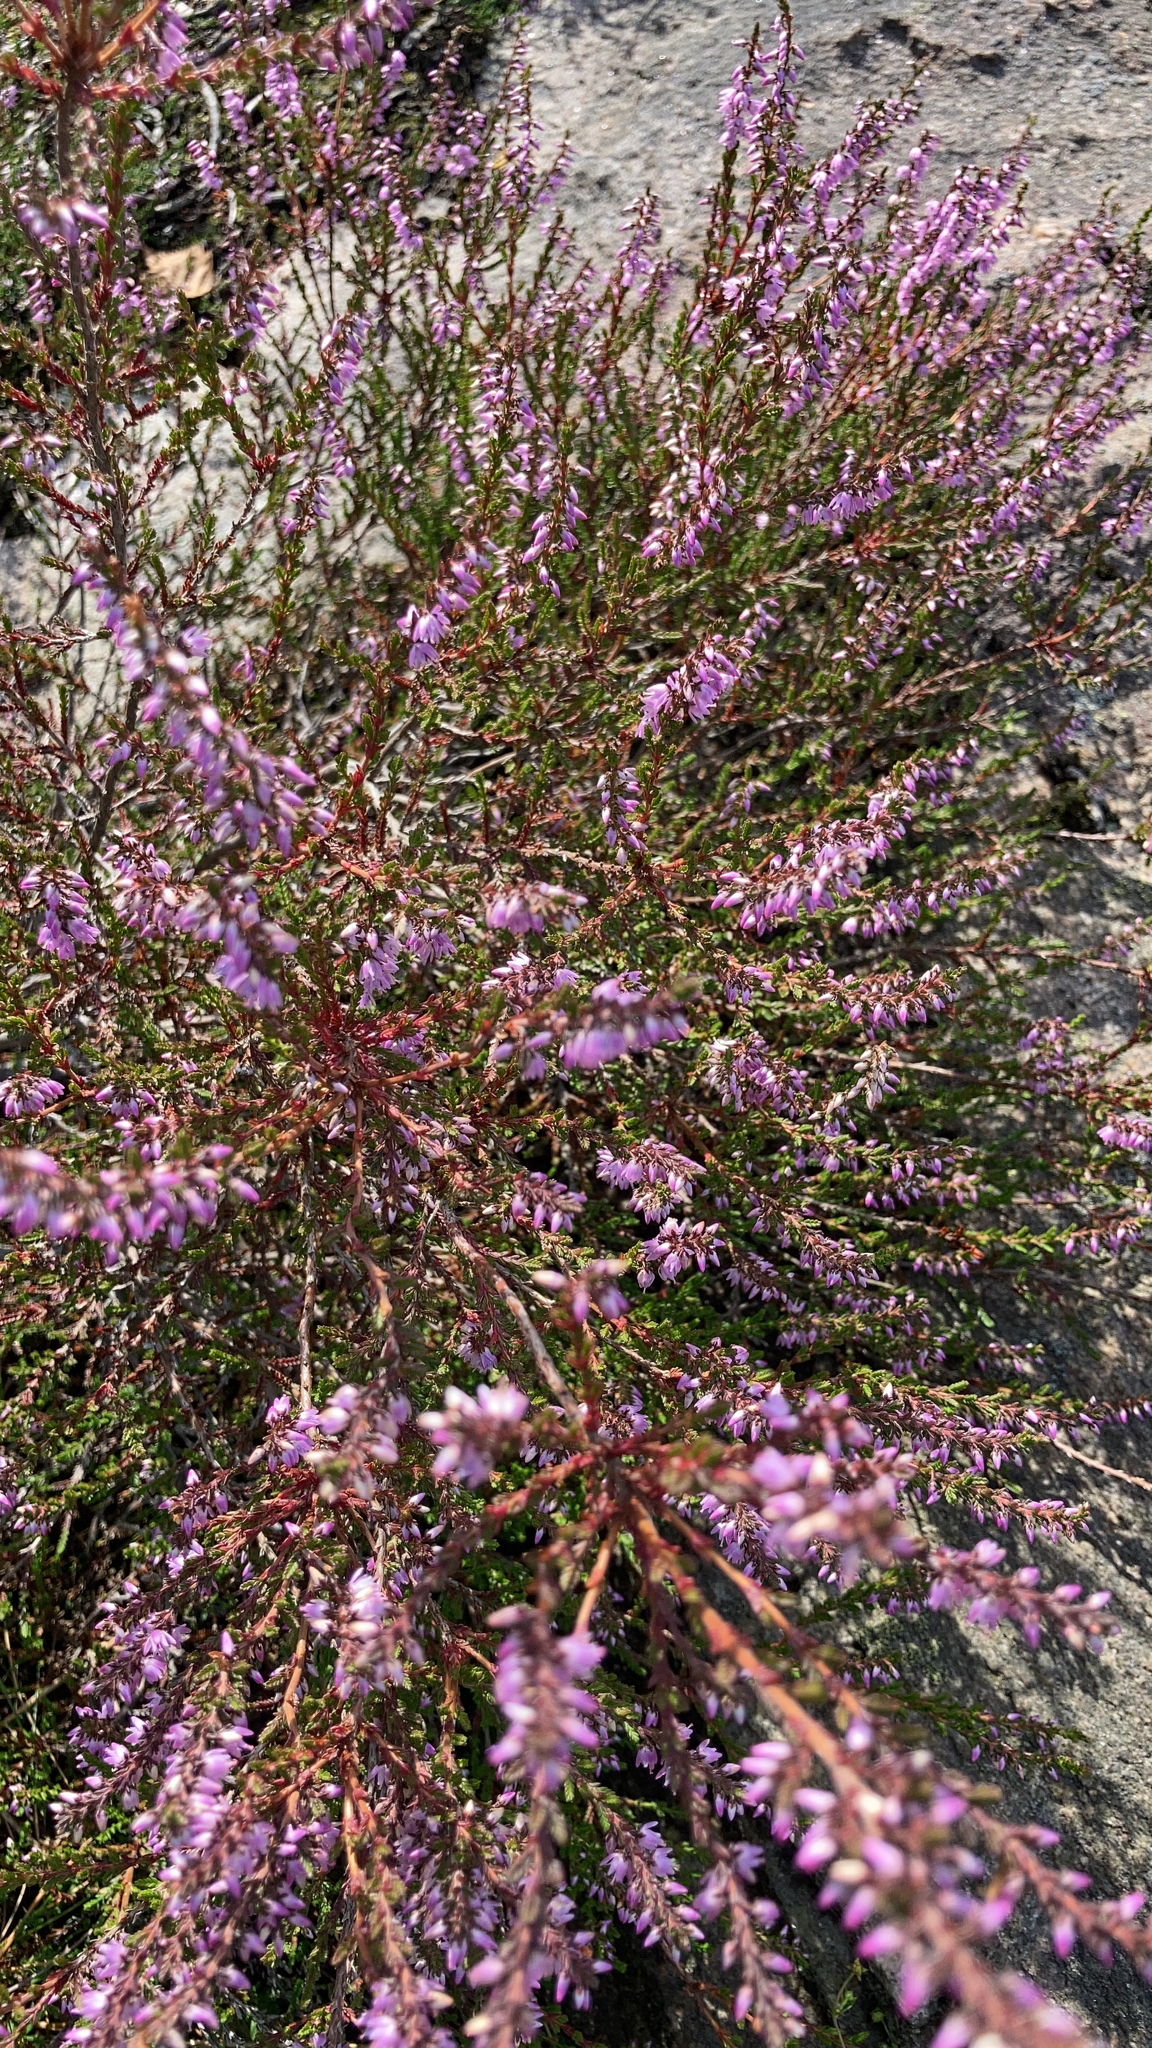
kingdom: Plantae
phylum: Tracheophyta
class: Magnoliopsida
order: Ericales
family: Ericaceae
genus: Calluna
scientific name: Calluna vulgaris
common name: Heather
